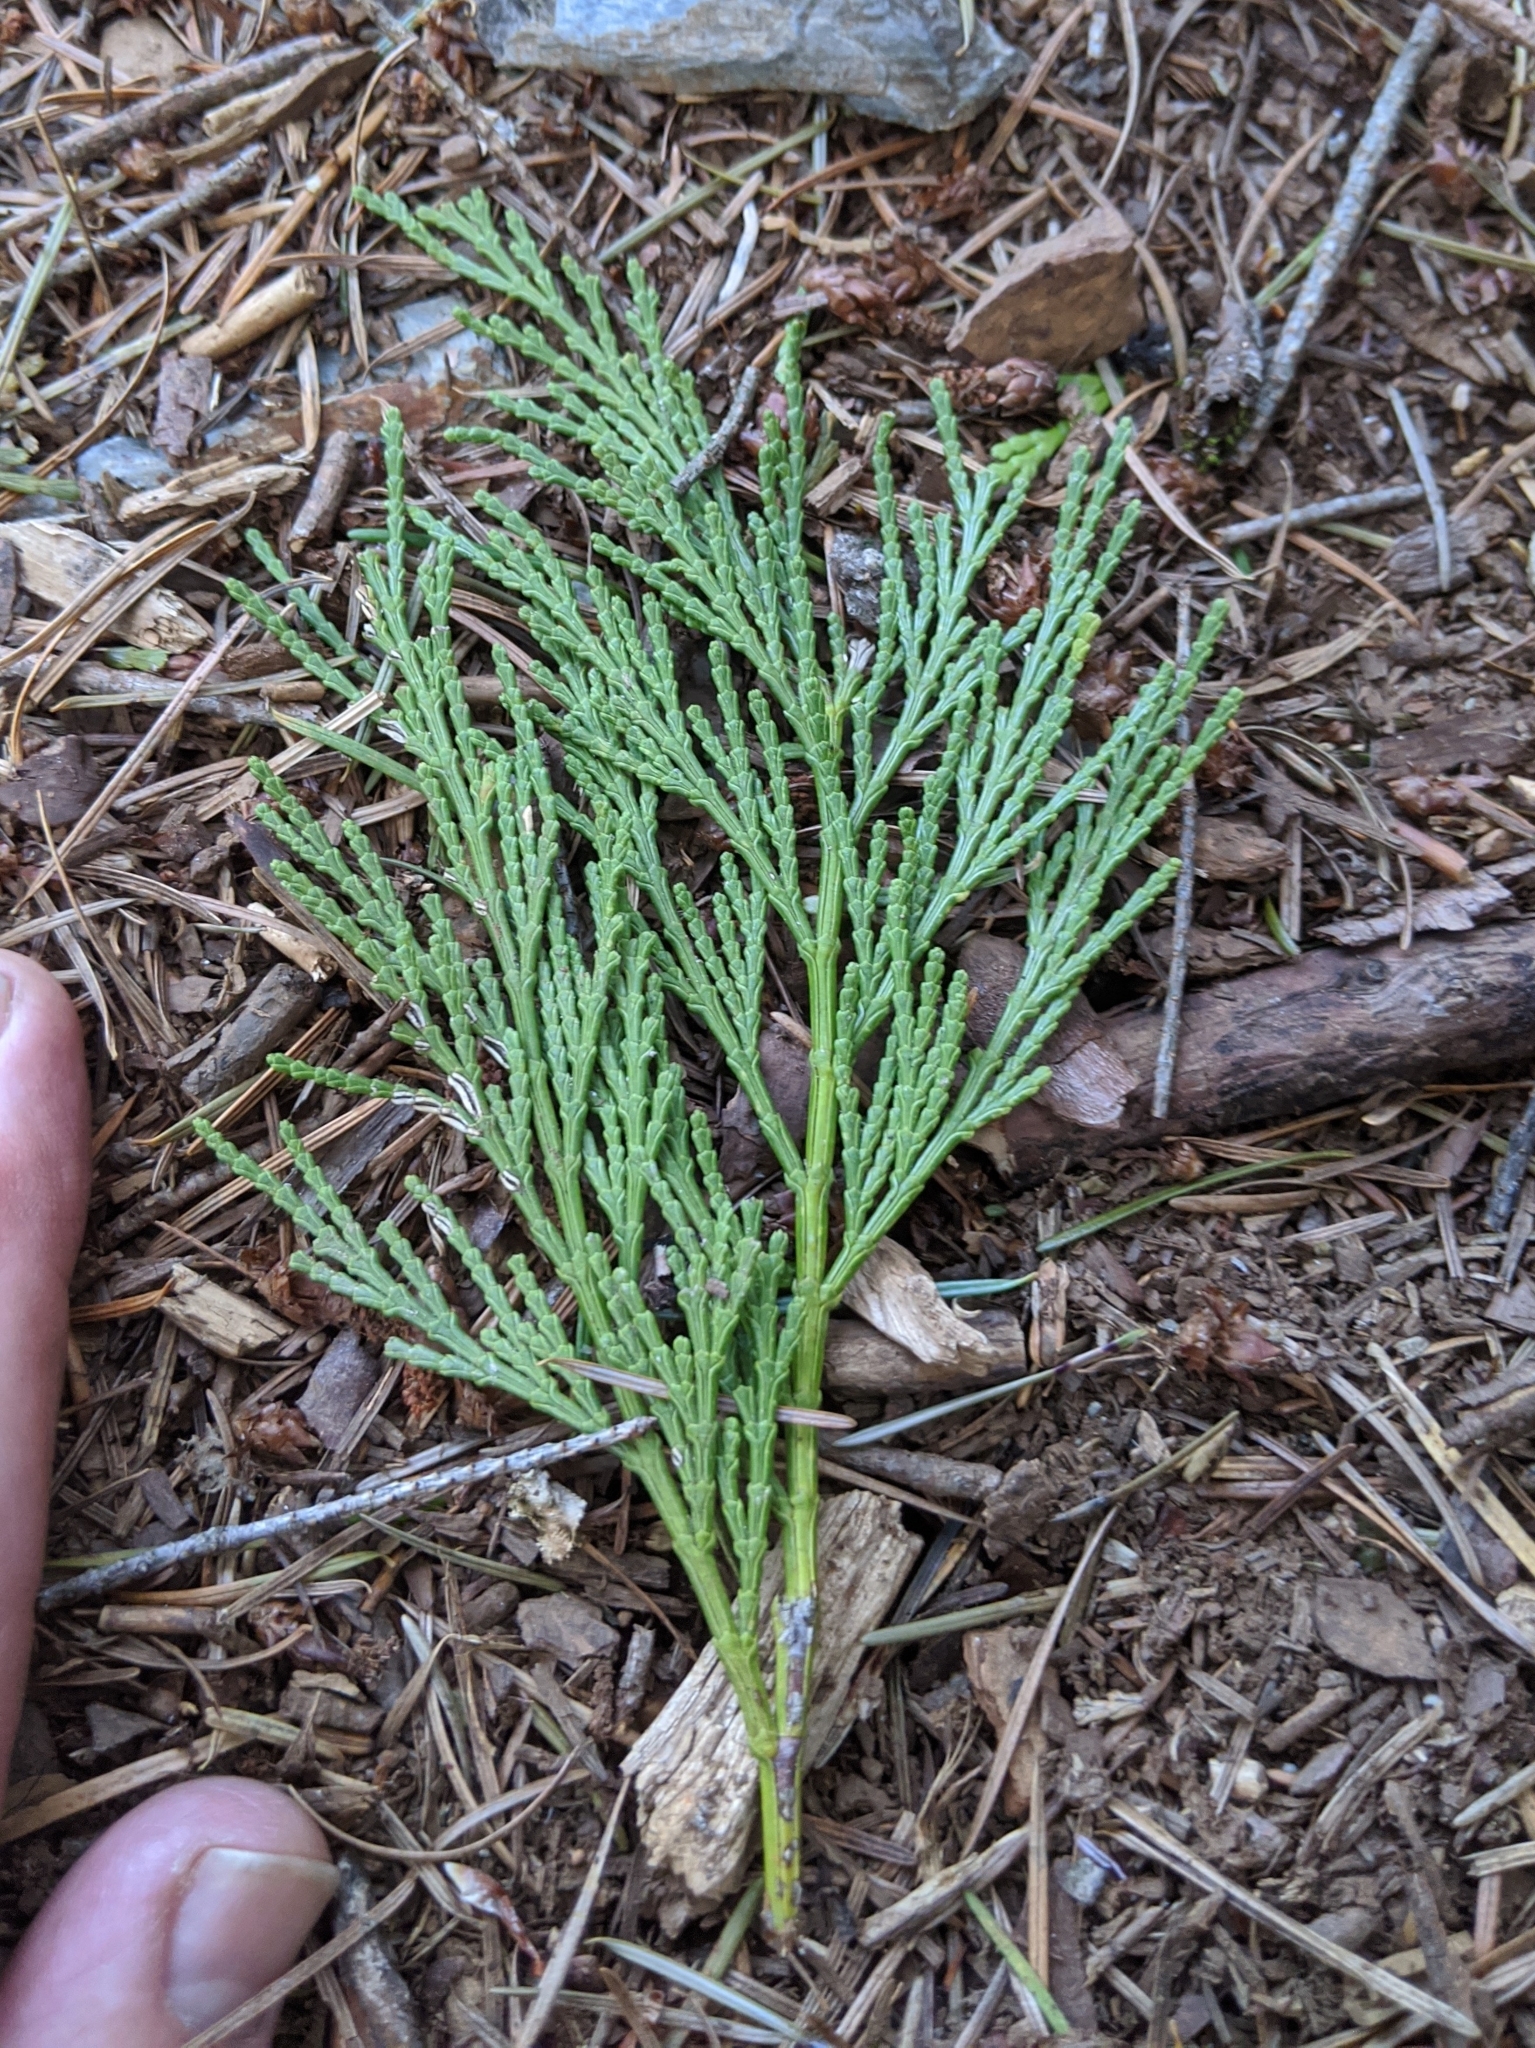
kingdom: Plantae
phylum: Tracheophyta
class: Pinopsida
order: Pinales
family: Cupressaceae
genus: Calocedrus
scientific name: Calocedrus decurrens
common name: Californian incense-cedar
